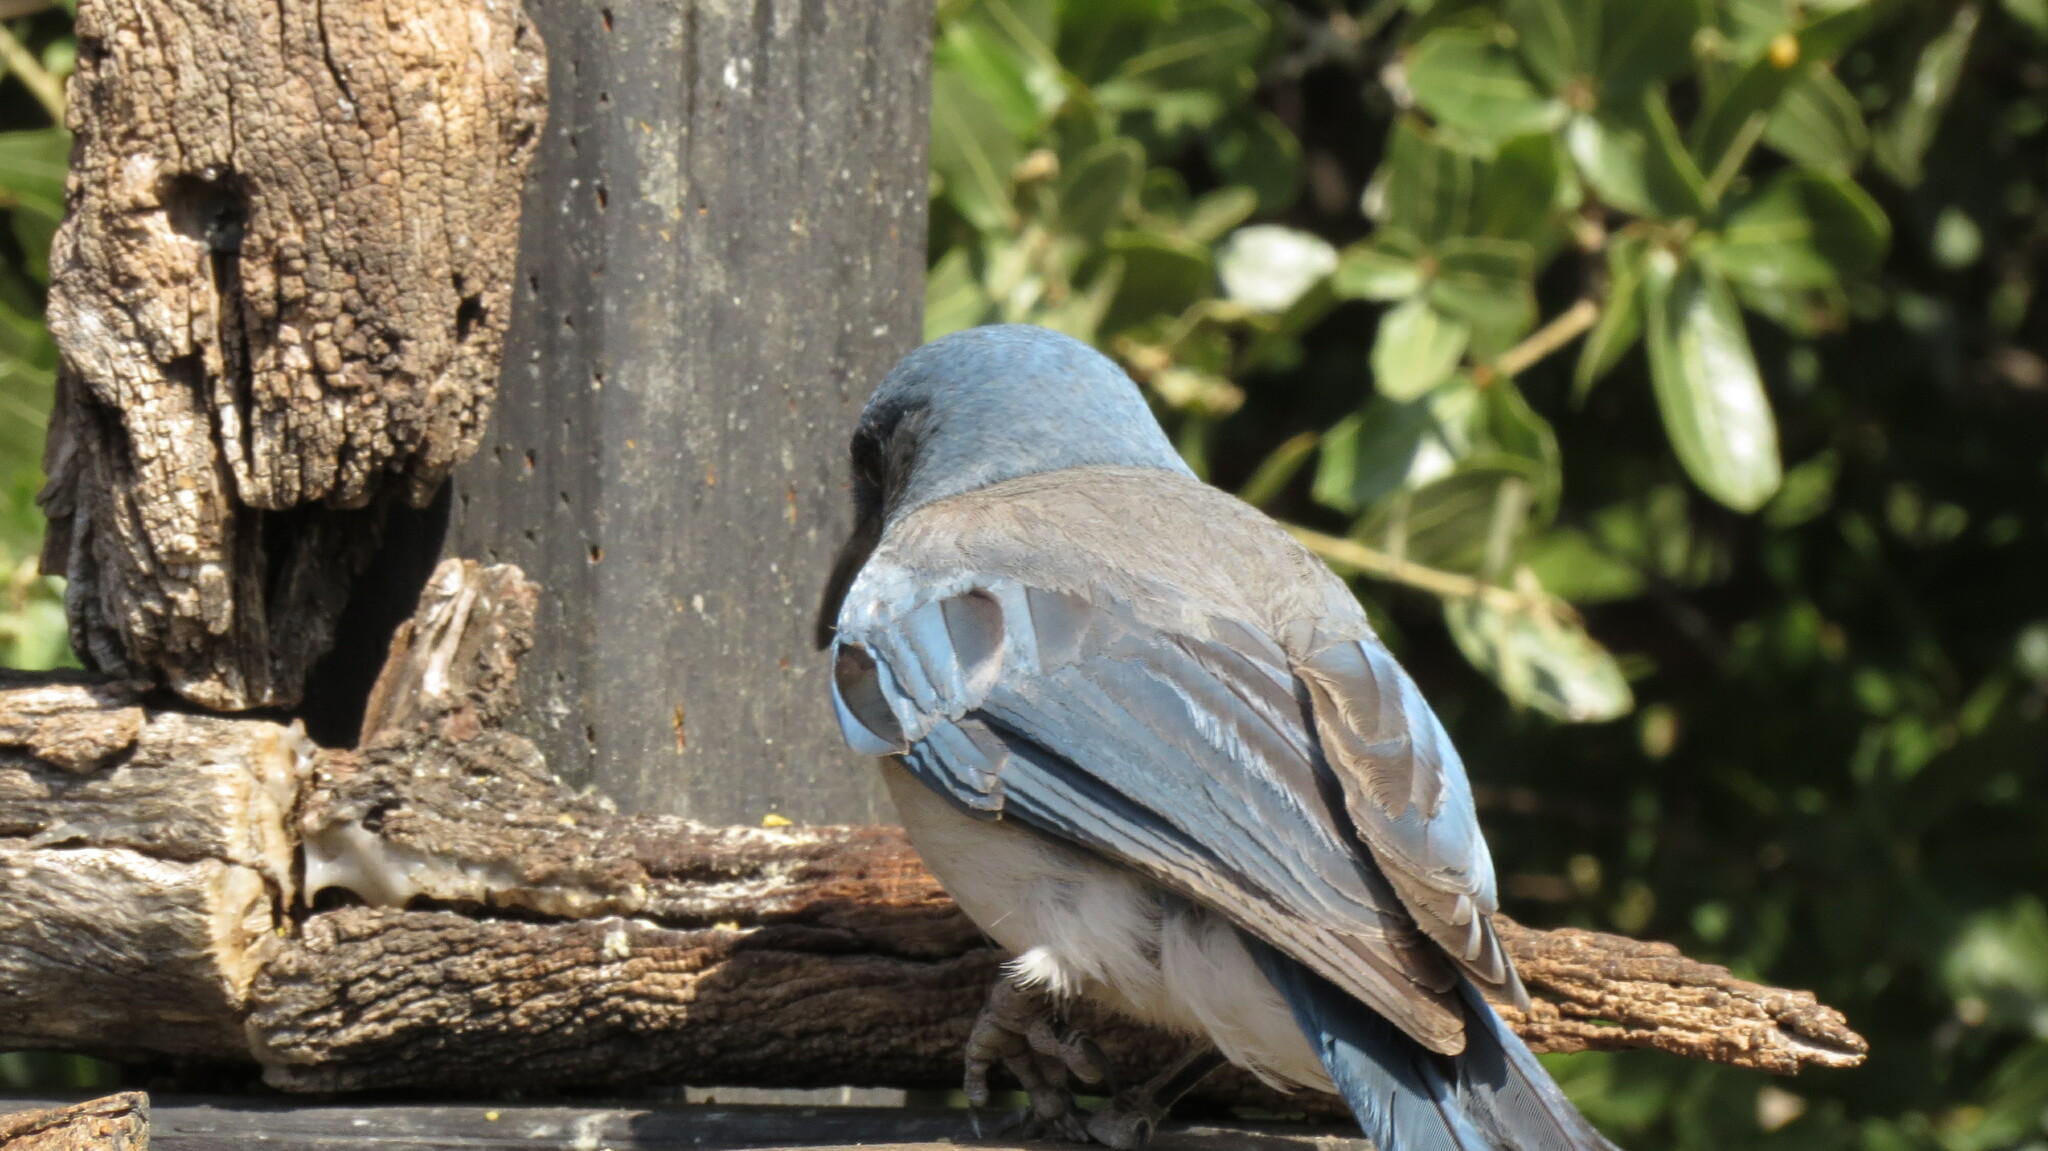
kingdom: Animalia
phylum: Chordata
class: Aves
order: Passeriformes
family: Corvidae
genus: Aphelocoma
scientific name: Aphelocoma wollweberi
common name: Mexican jay
